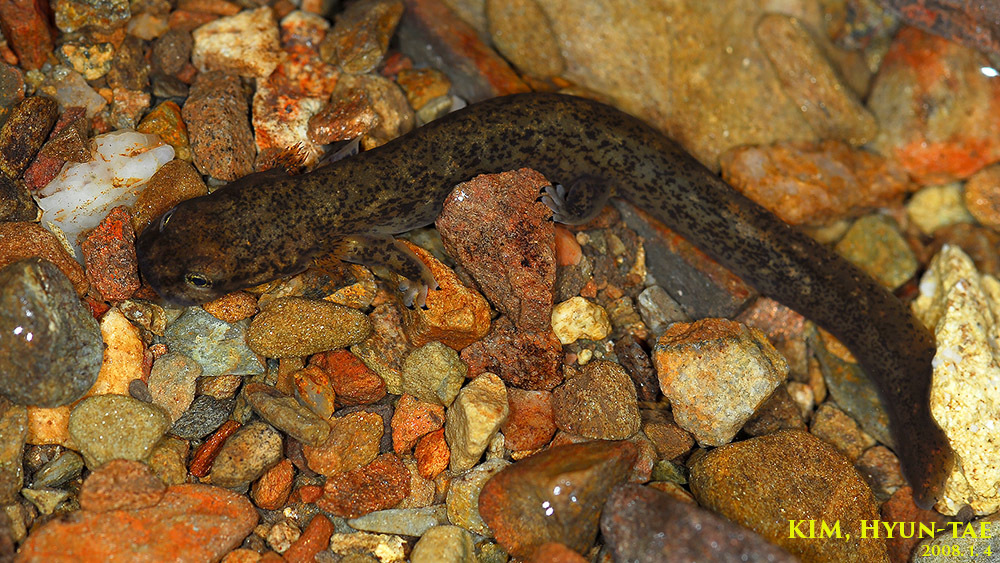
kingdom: Animalia
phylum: Chordata
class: Amphibia
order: Caudata
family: Hynobiidae
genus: Onychodactylus
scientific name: Onychodactylus koreanus
